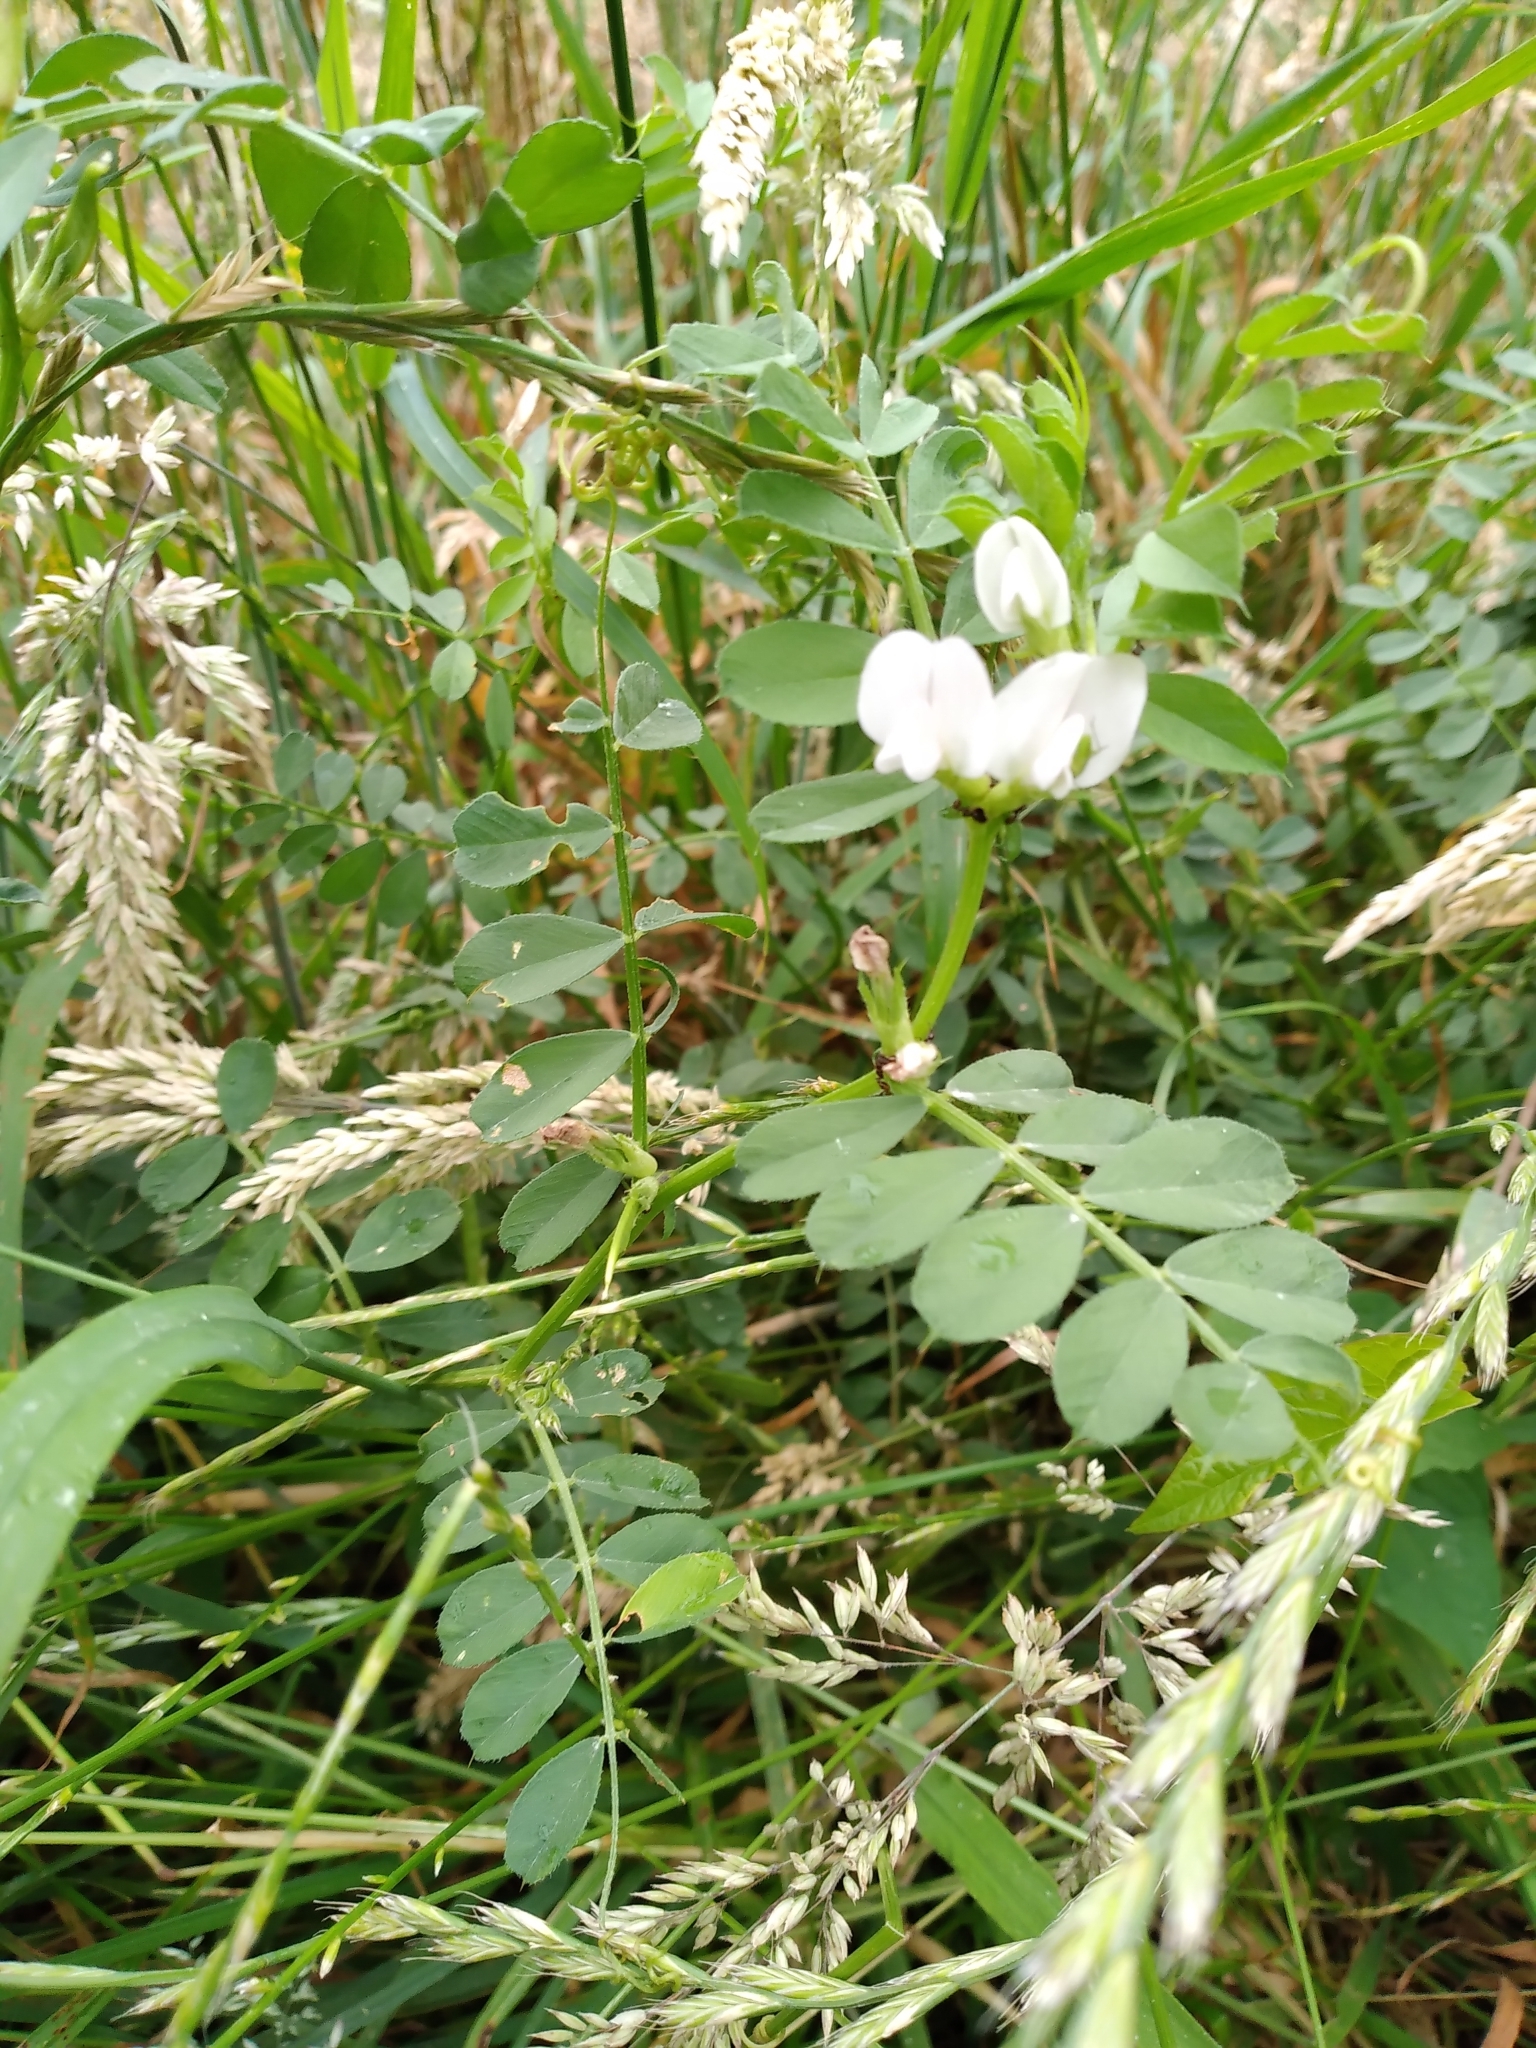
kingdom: Plantae
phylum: Tracheophyta
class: Magnoliopsida
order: Fabales
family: Fabaceae
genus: Vicia
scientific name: Vicia sativa
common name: Garden vetch
